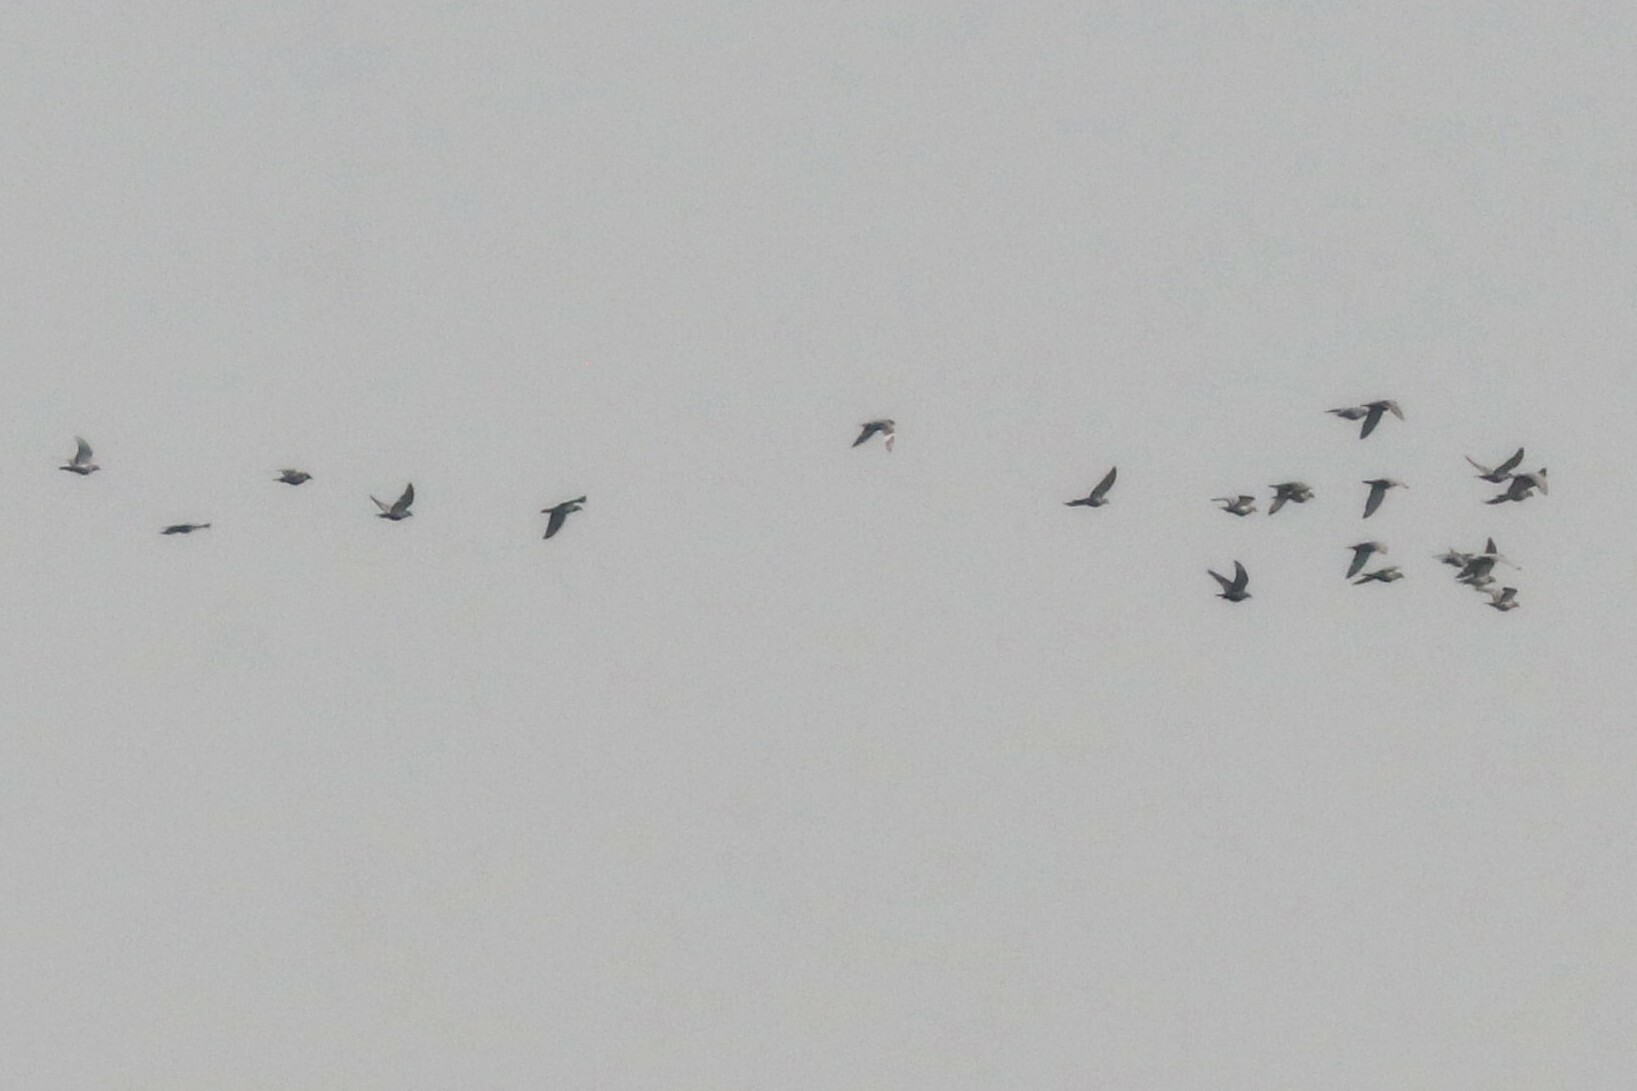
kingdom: Animalia
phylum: Chordata
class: Aves
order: Columbiformes
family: Columbidae
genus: Columba
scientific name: Columba palumbus
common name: Common wood pigeon
